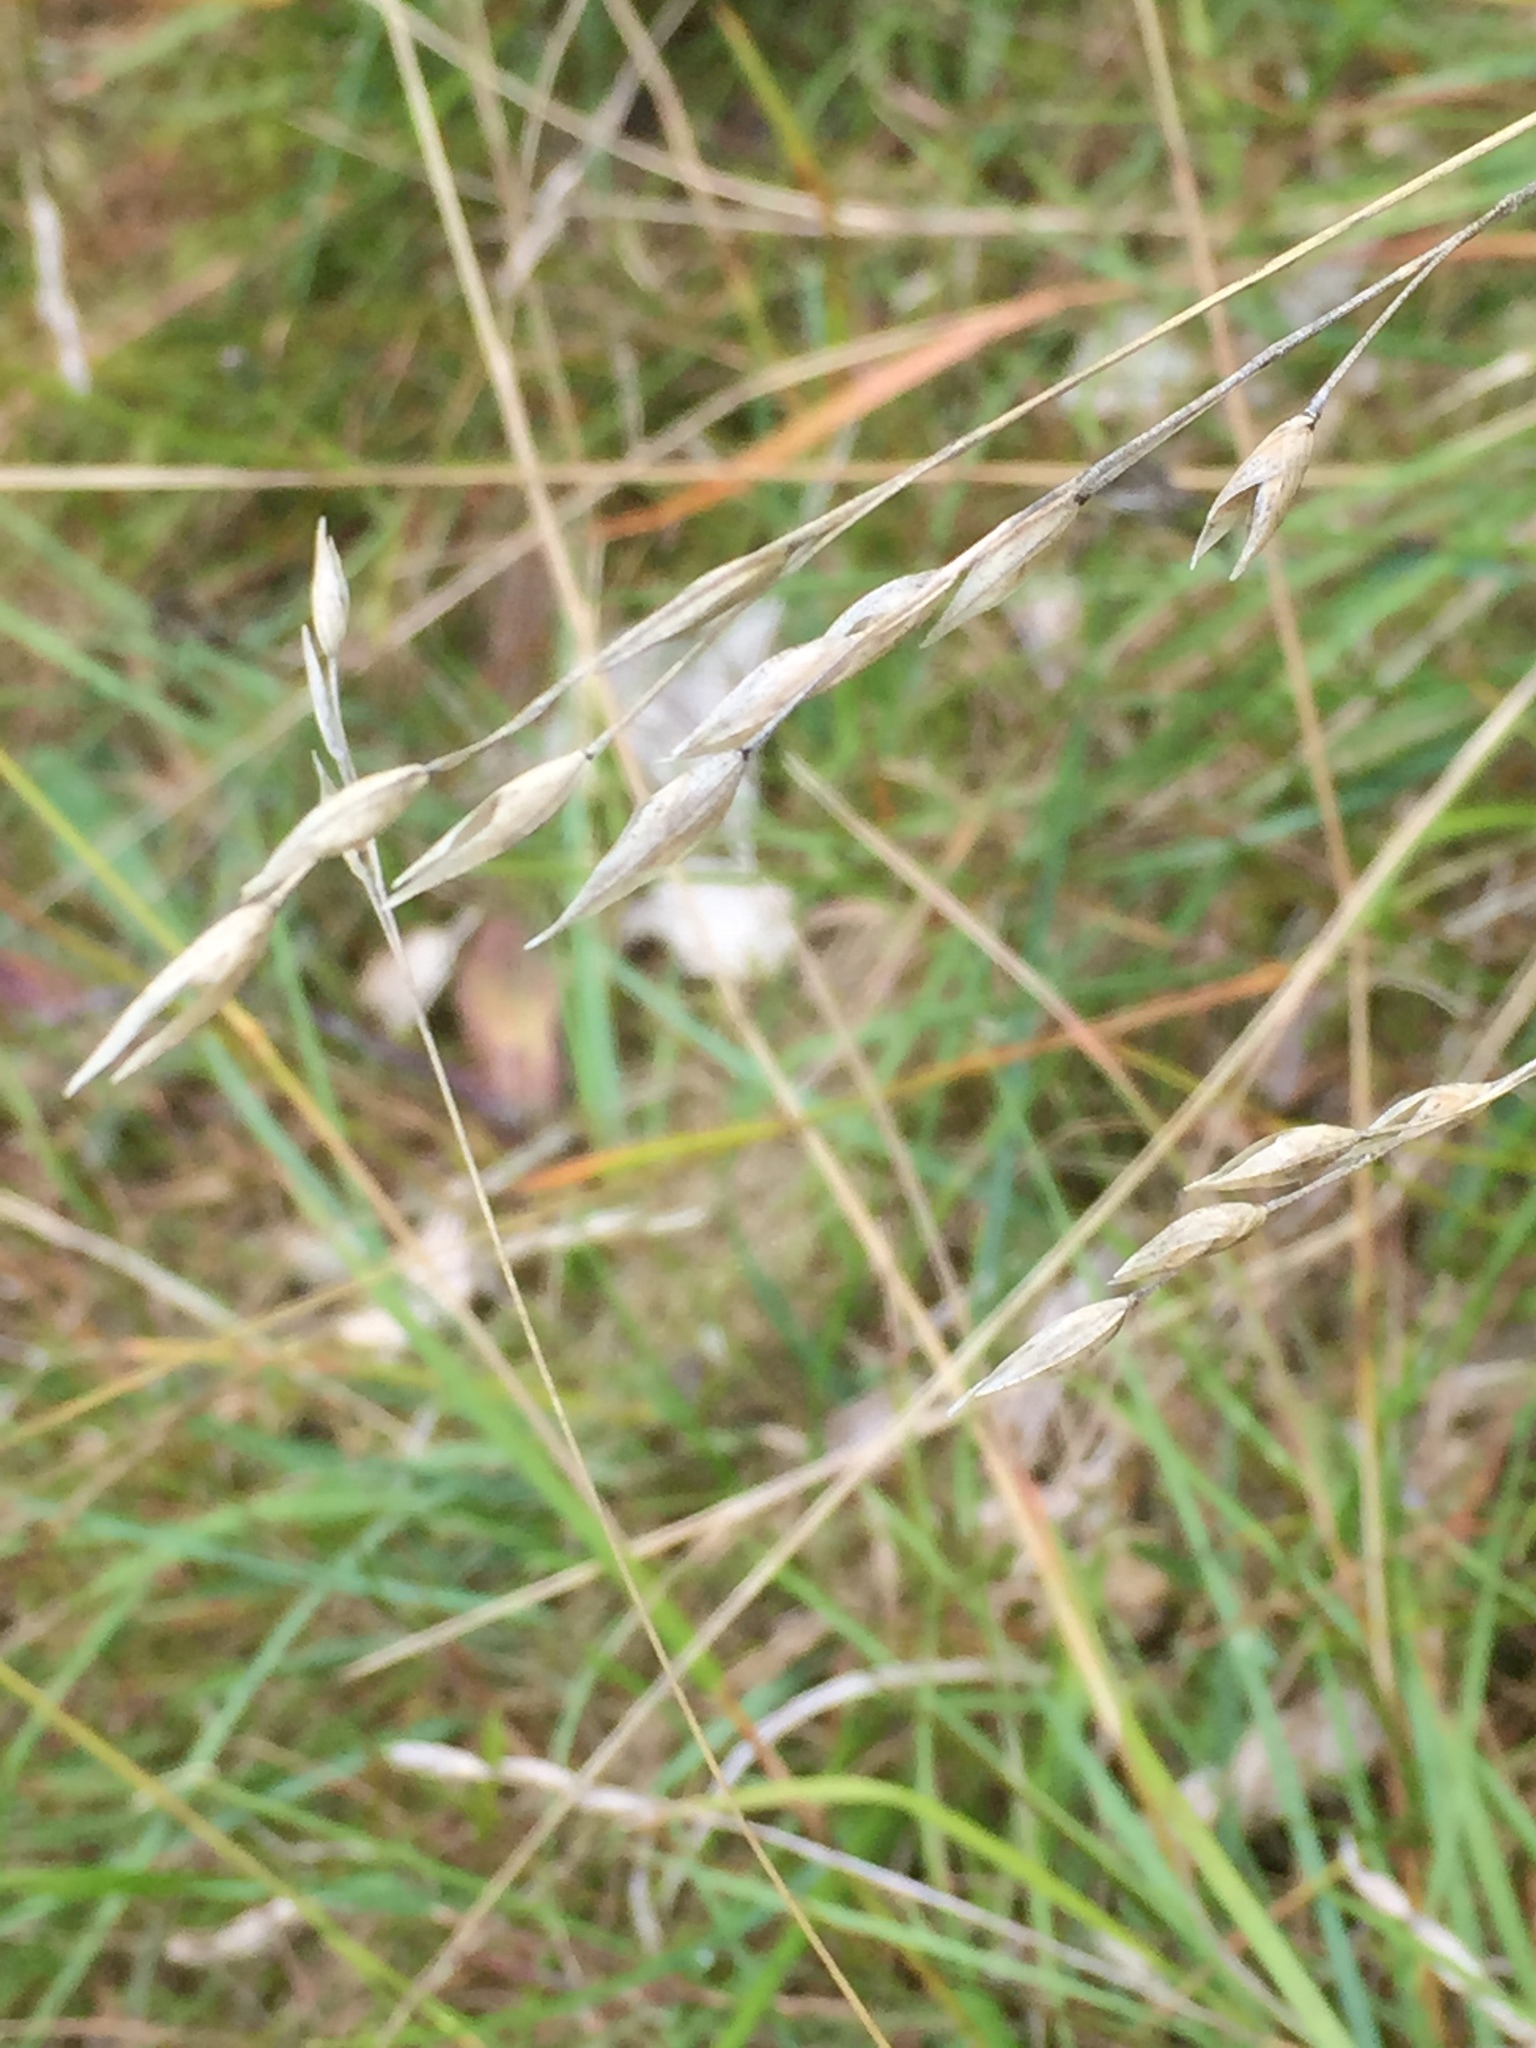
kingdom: Plantae
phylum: Tracheophyta
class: Liliopsida
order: Poales
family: Poaceae
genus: Danthonia
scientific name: Danthonia decumbens
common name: Common heathgrass
